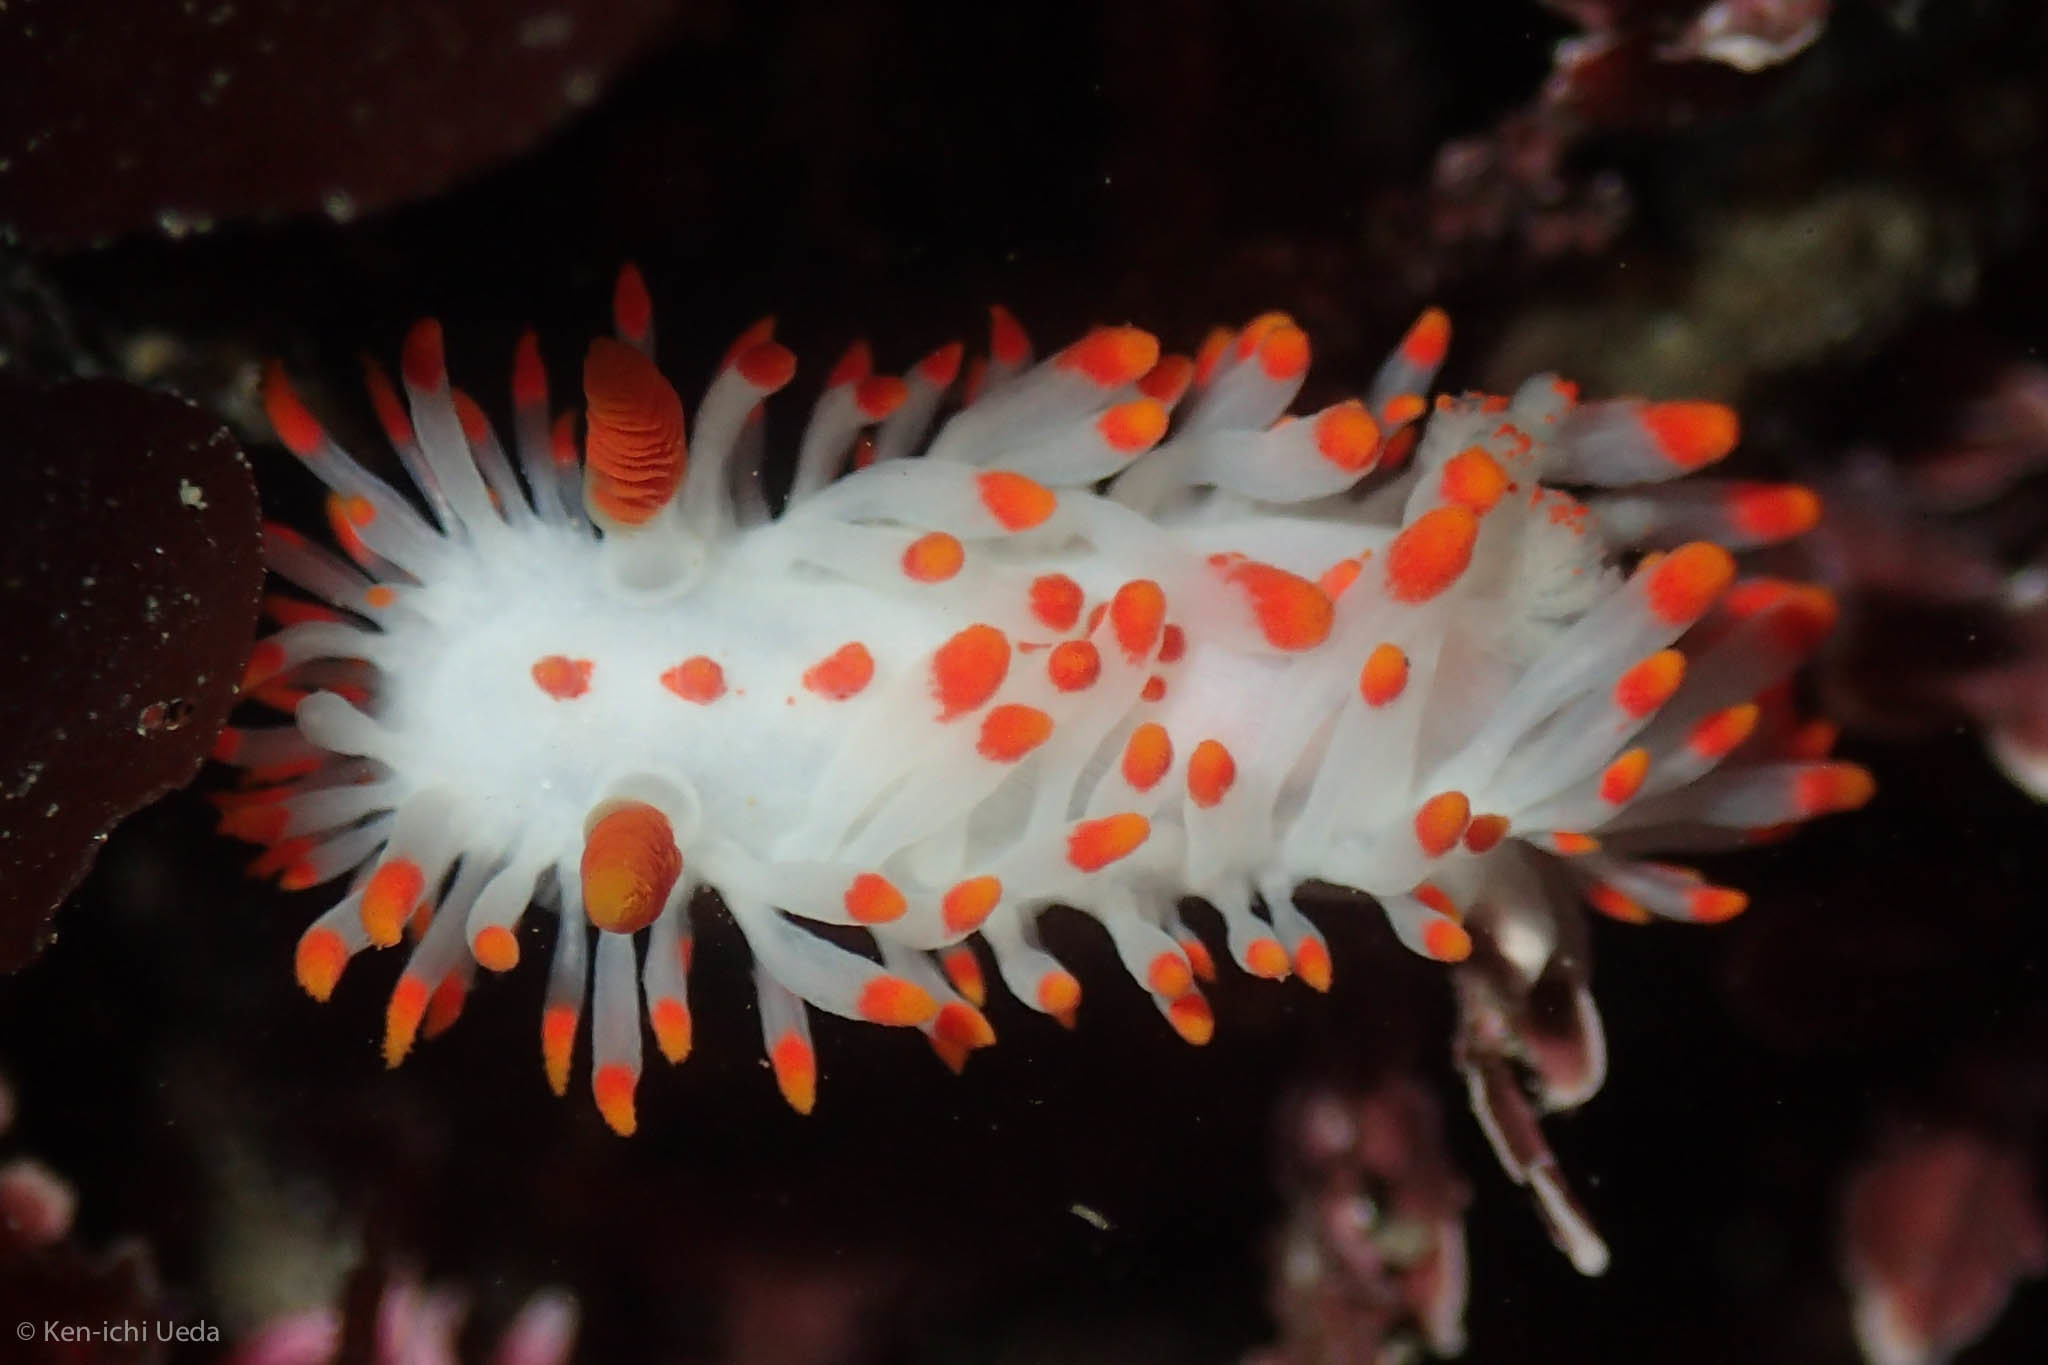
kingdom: Animalia
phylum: Mollusca
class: Gastropoda
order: Nudibranchia
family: Polyceridae
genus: Limacia
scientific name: Limacia mcdonaldi
